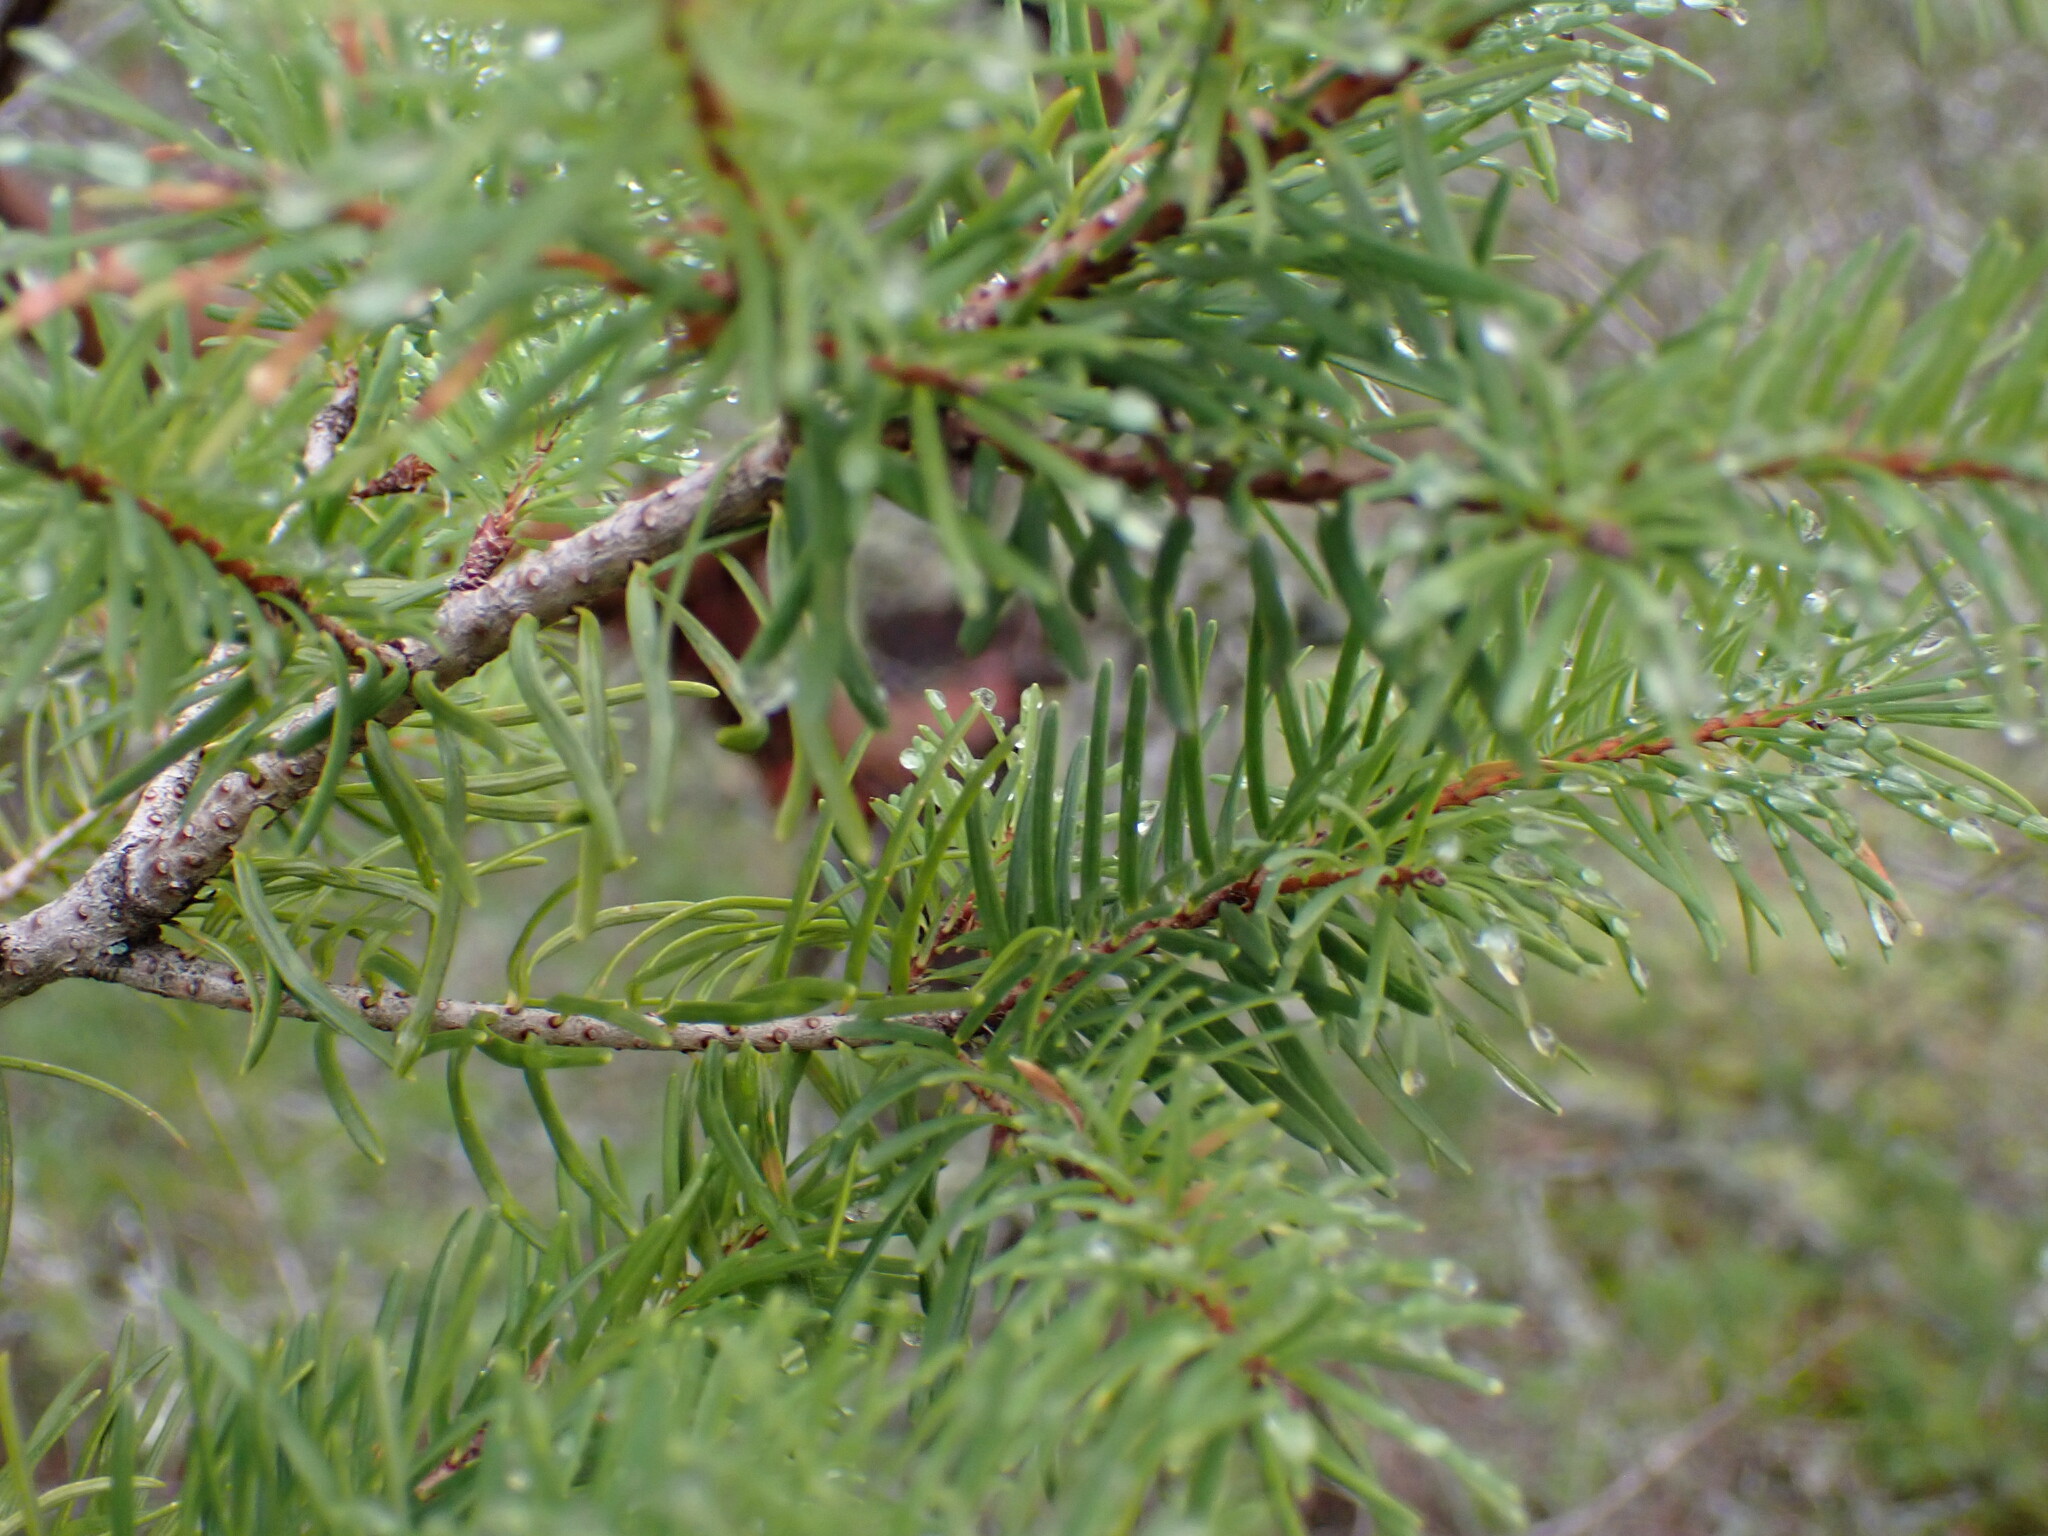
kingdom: Plantae
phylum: Tracheophyta
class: Pinopsida
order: Pinales
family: Pinaceae
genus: Pseudotsuga
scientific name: Pseudotsuga menziesii
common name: Douglas fir
